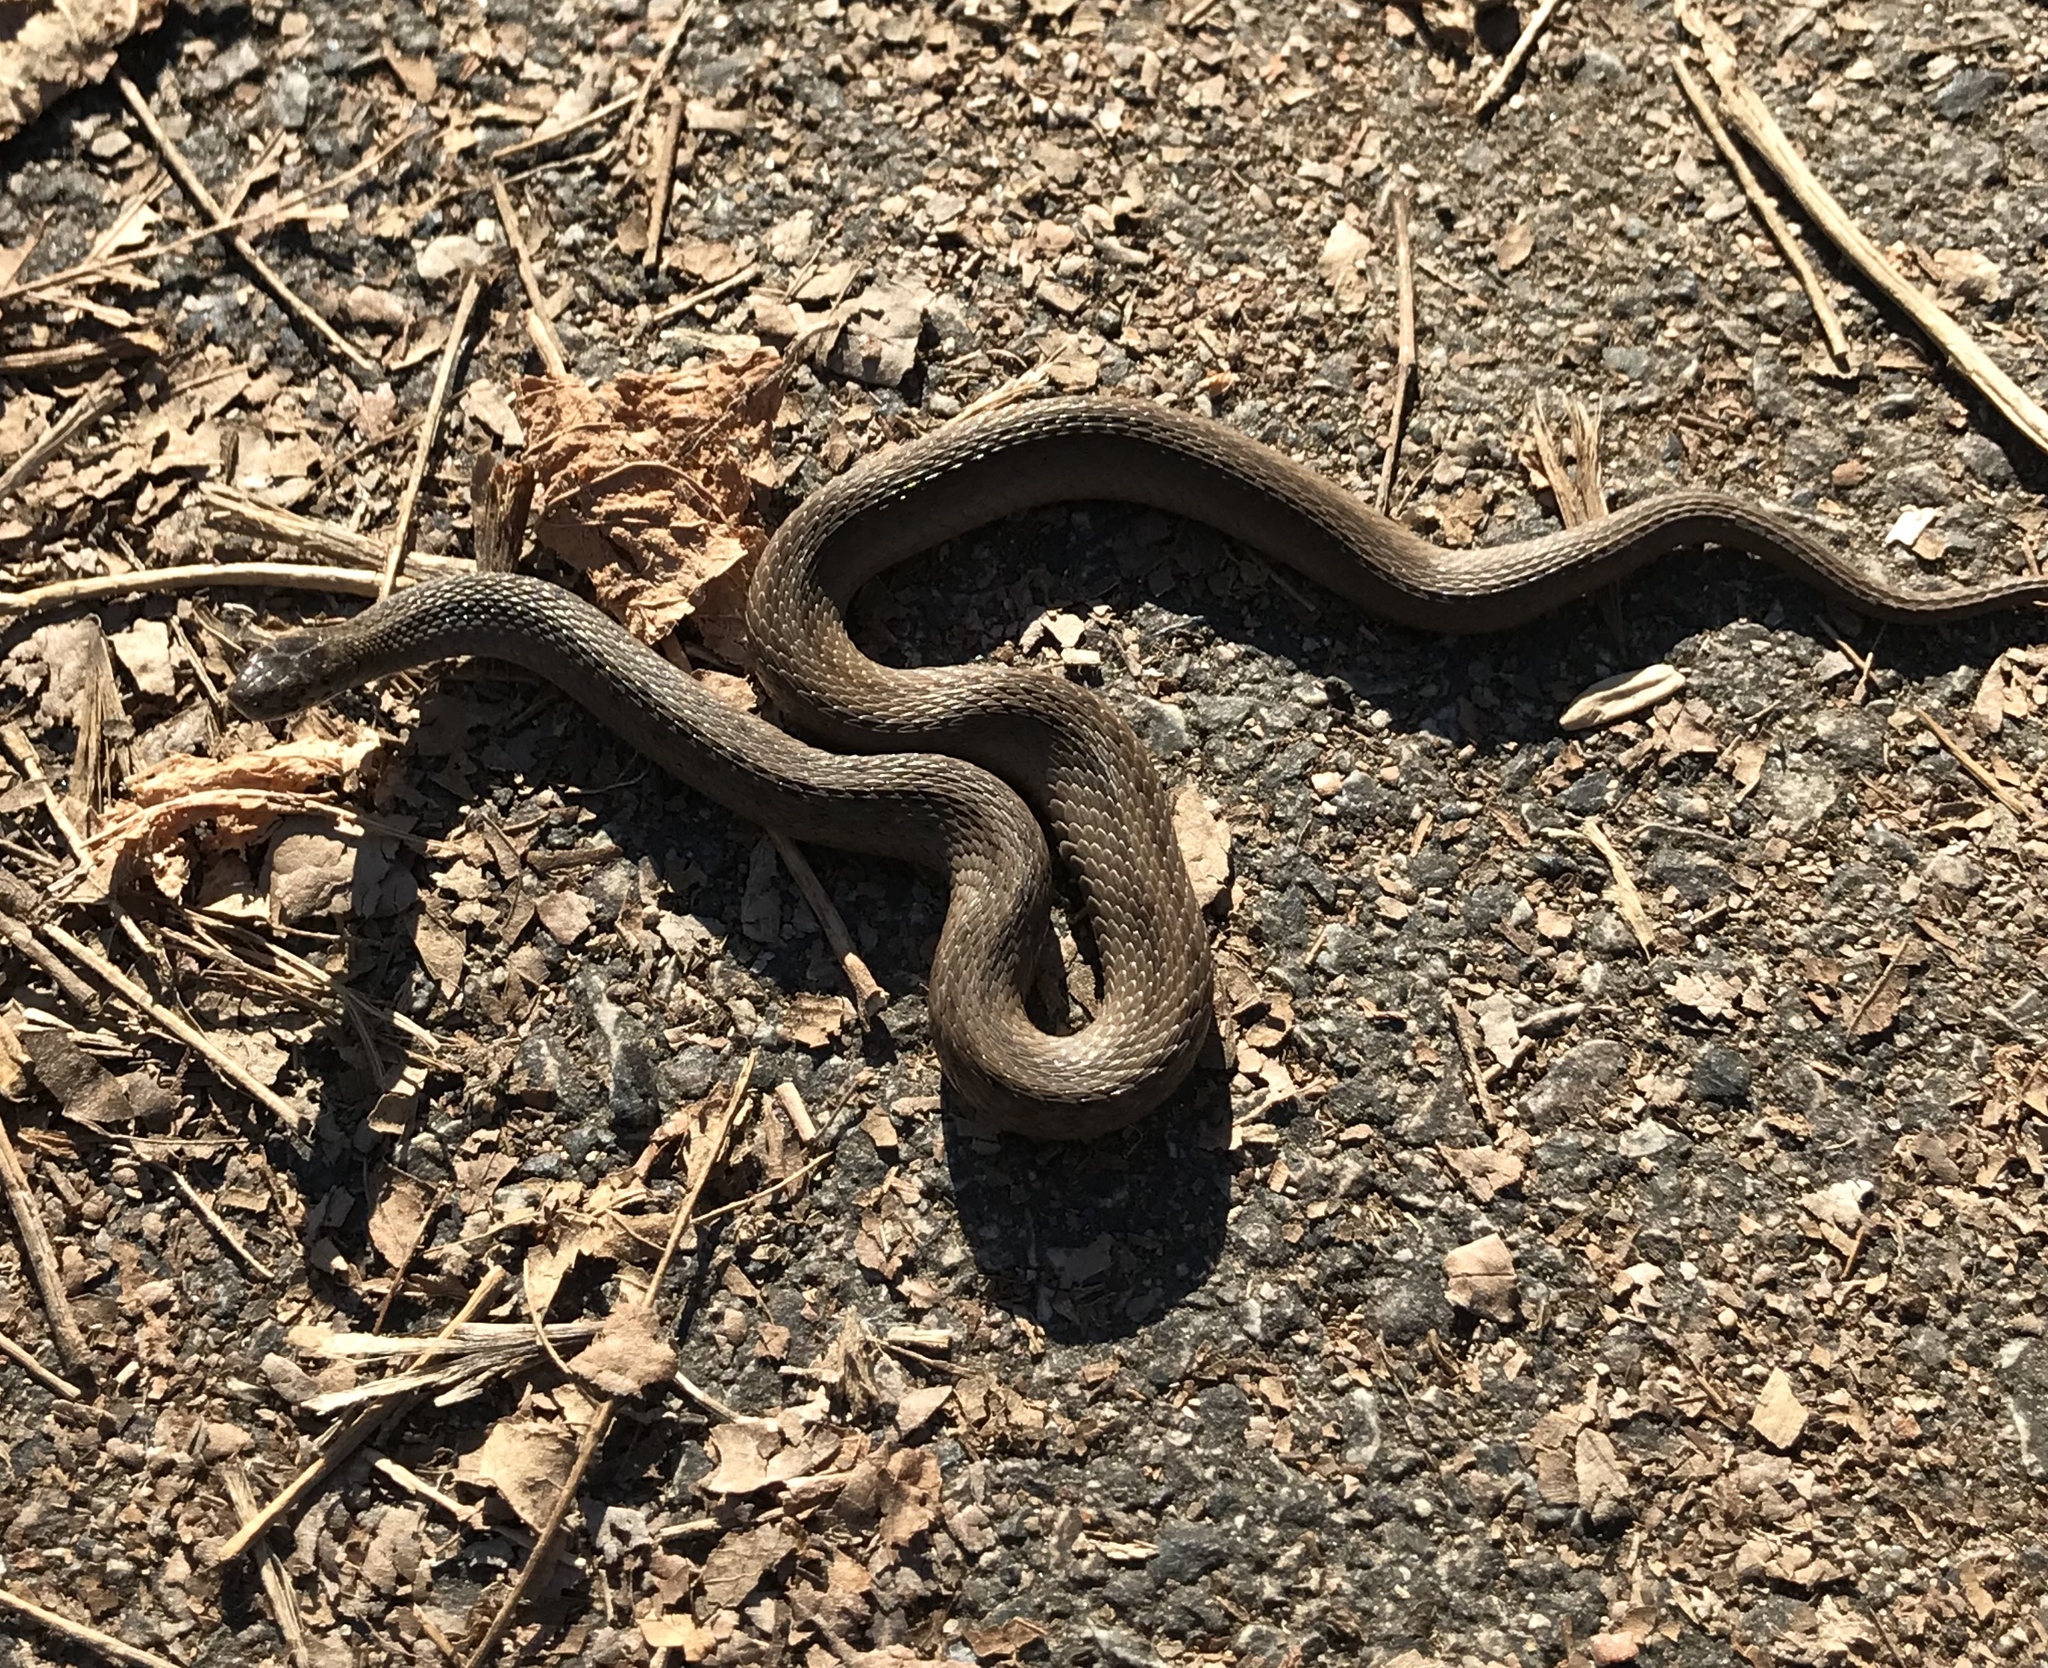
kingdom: Animalia
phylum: Chordata
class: Squamata
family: Colubridae
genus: Storeria
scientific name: Storeria dekayi
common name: (dekay’s) brown snake
